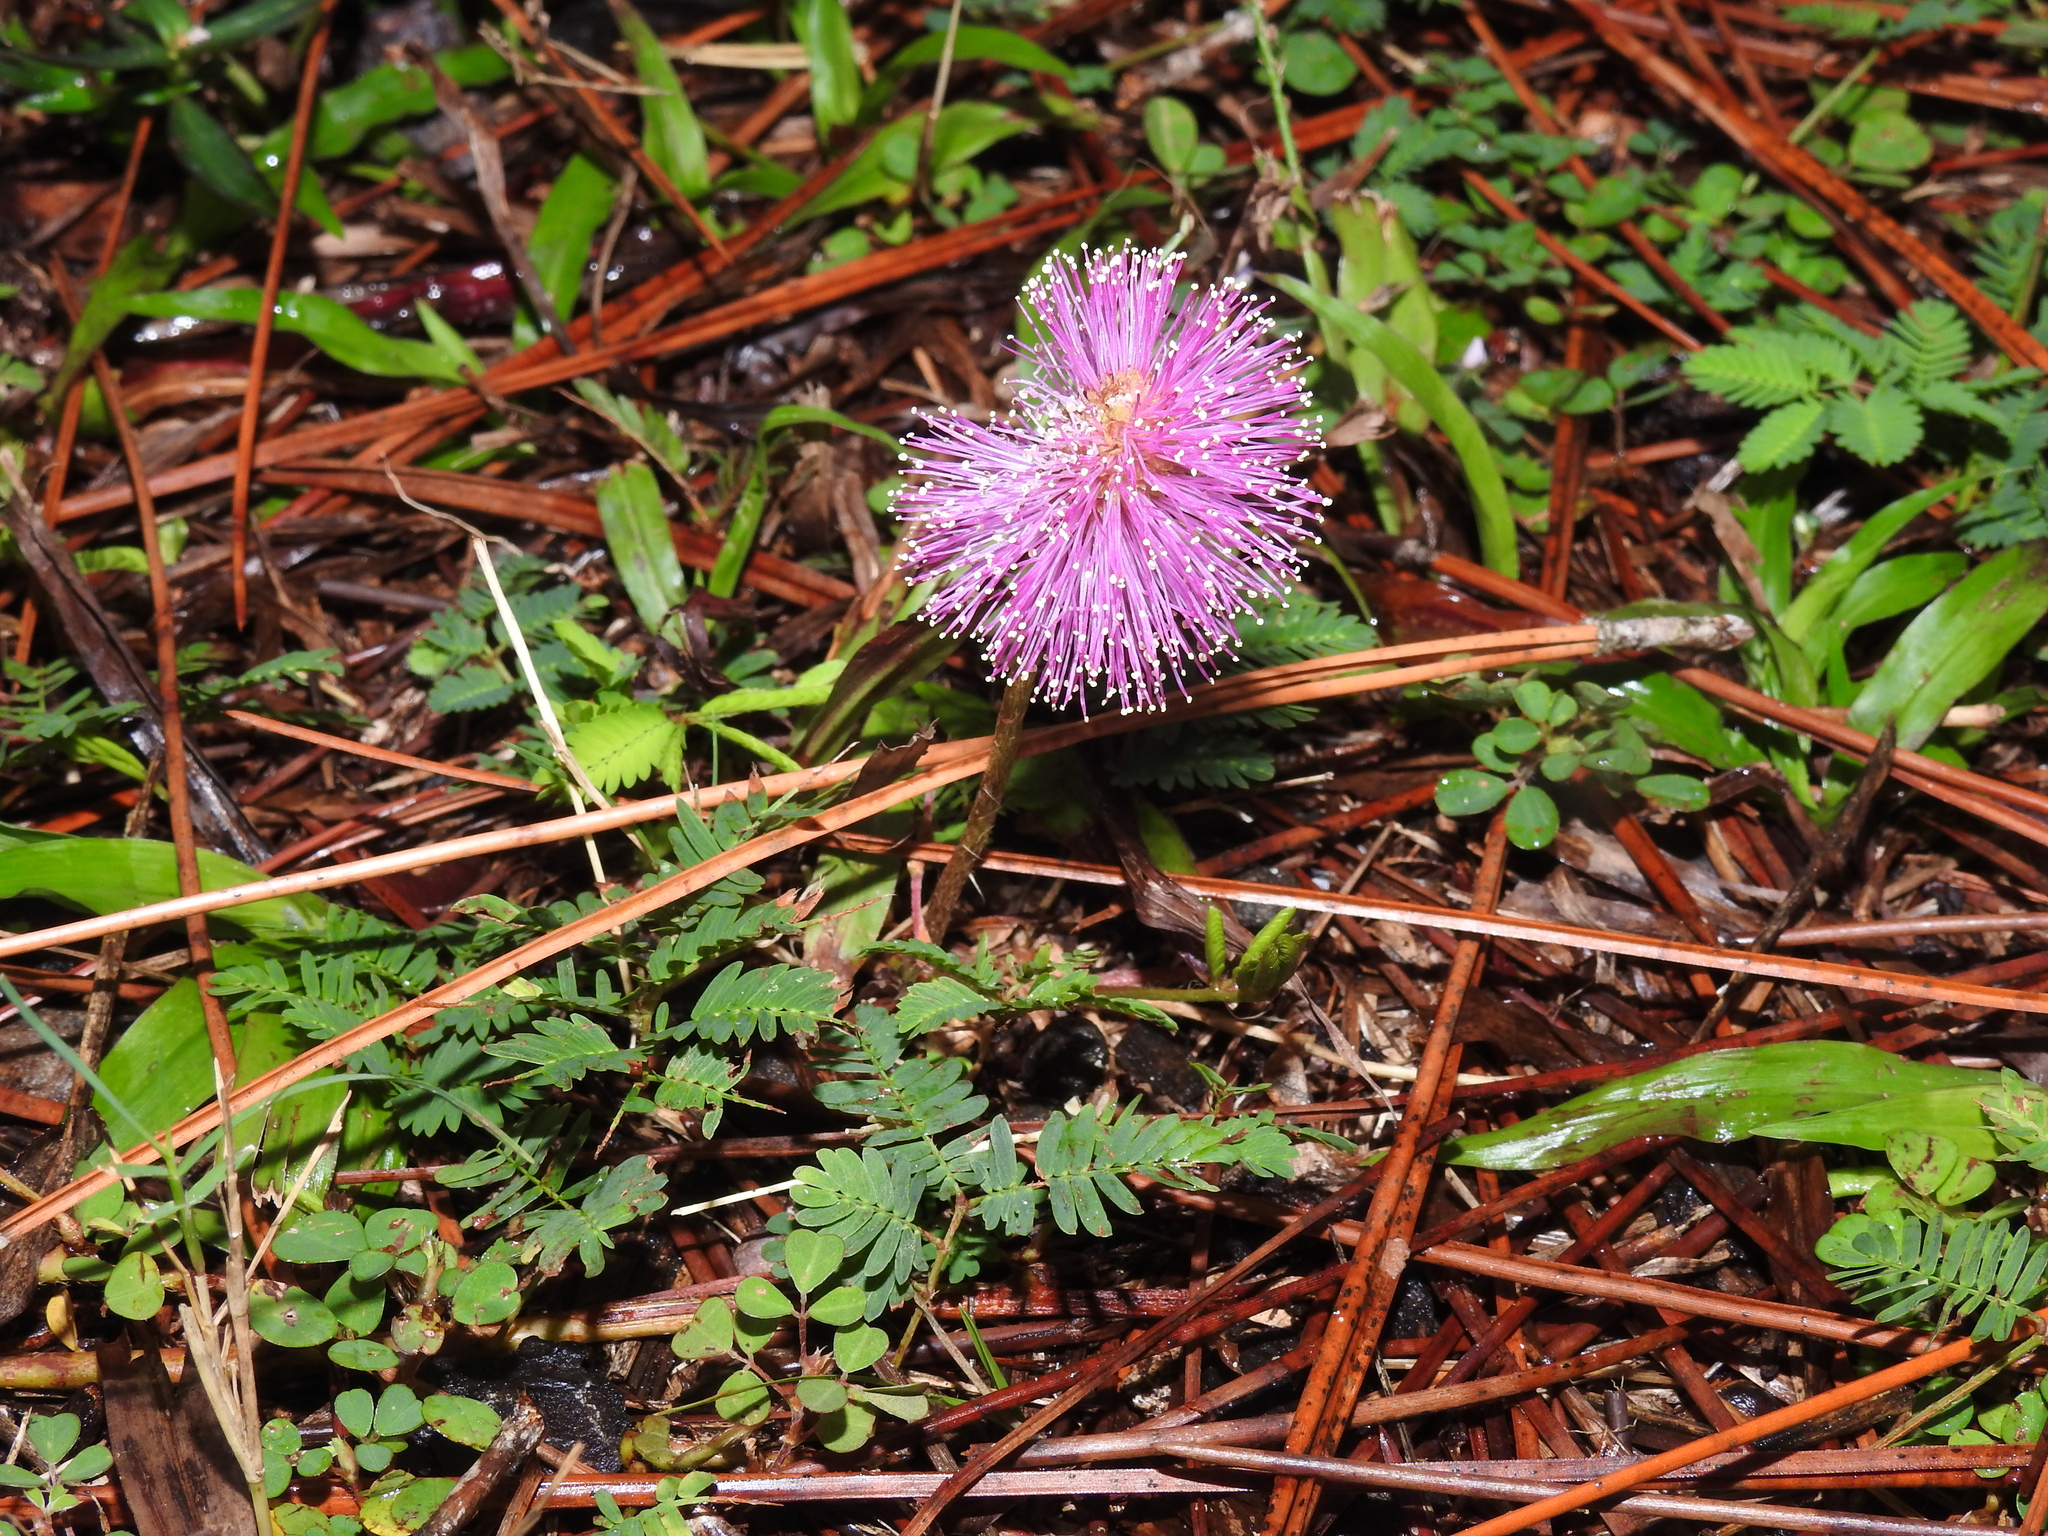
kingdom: Plantae
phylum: Tracheophyta
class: Magnoliopsida
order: Fabales
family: Fabaceae
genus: Mimosa
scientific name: Mimosa strigillosa
